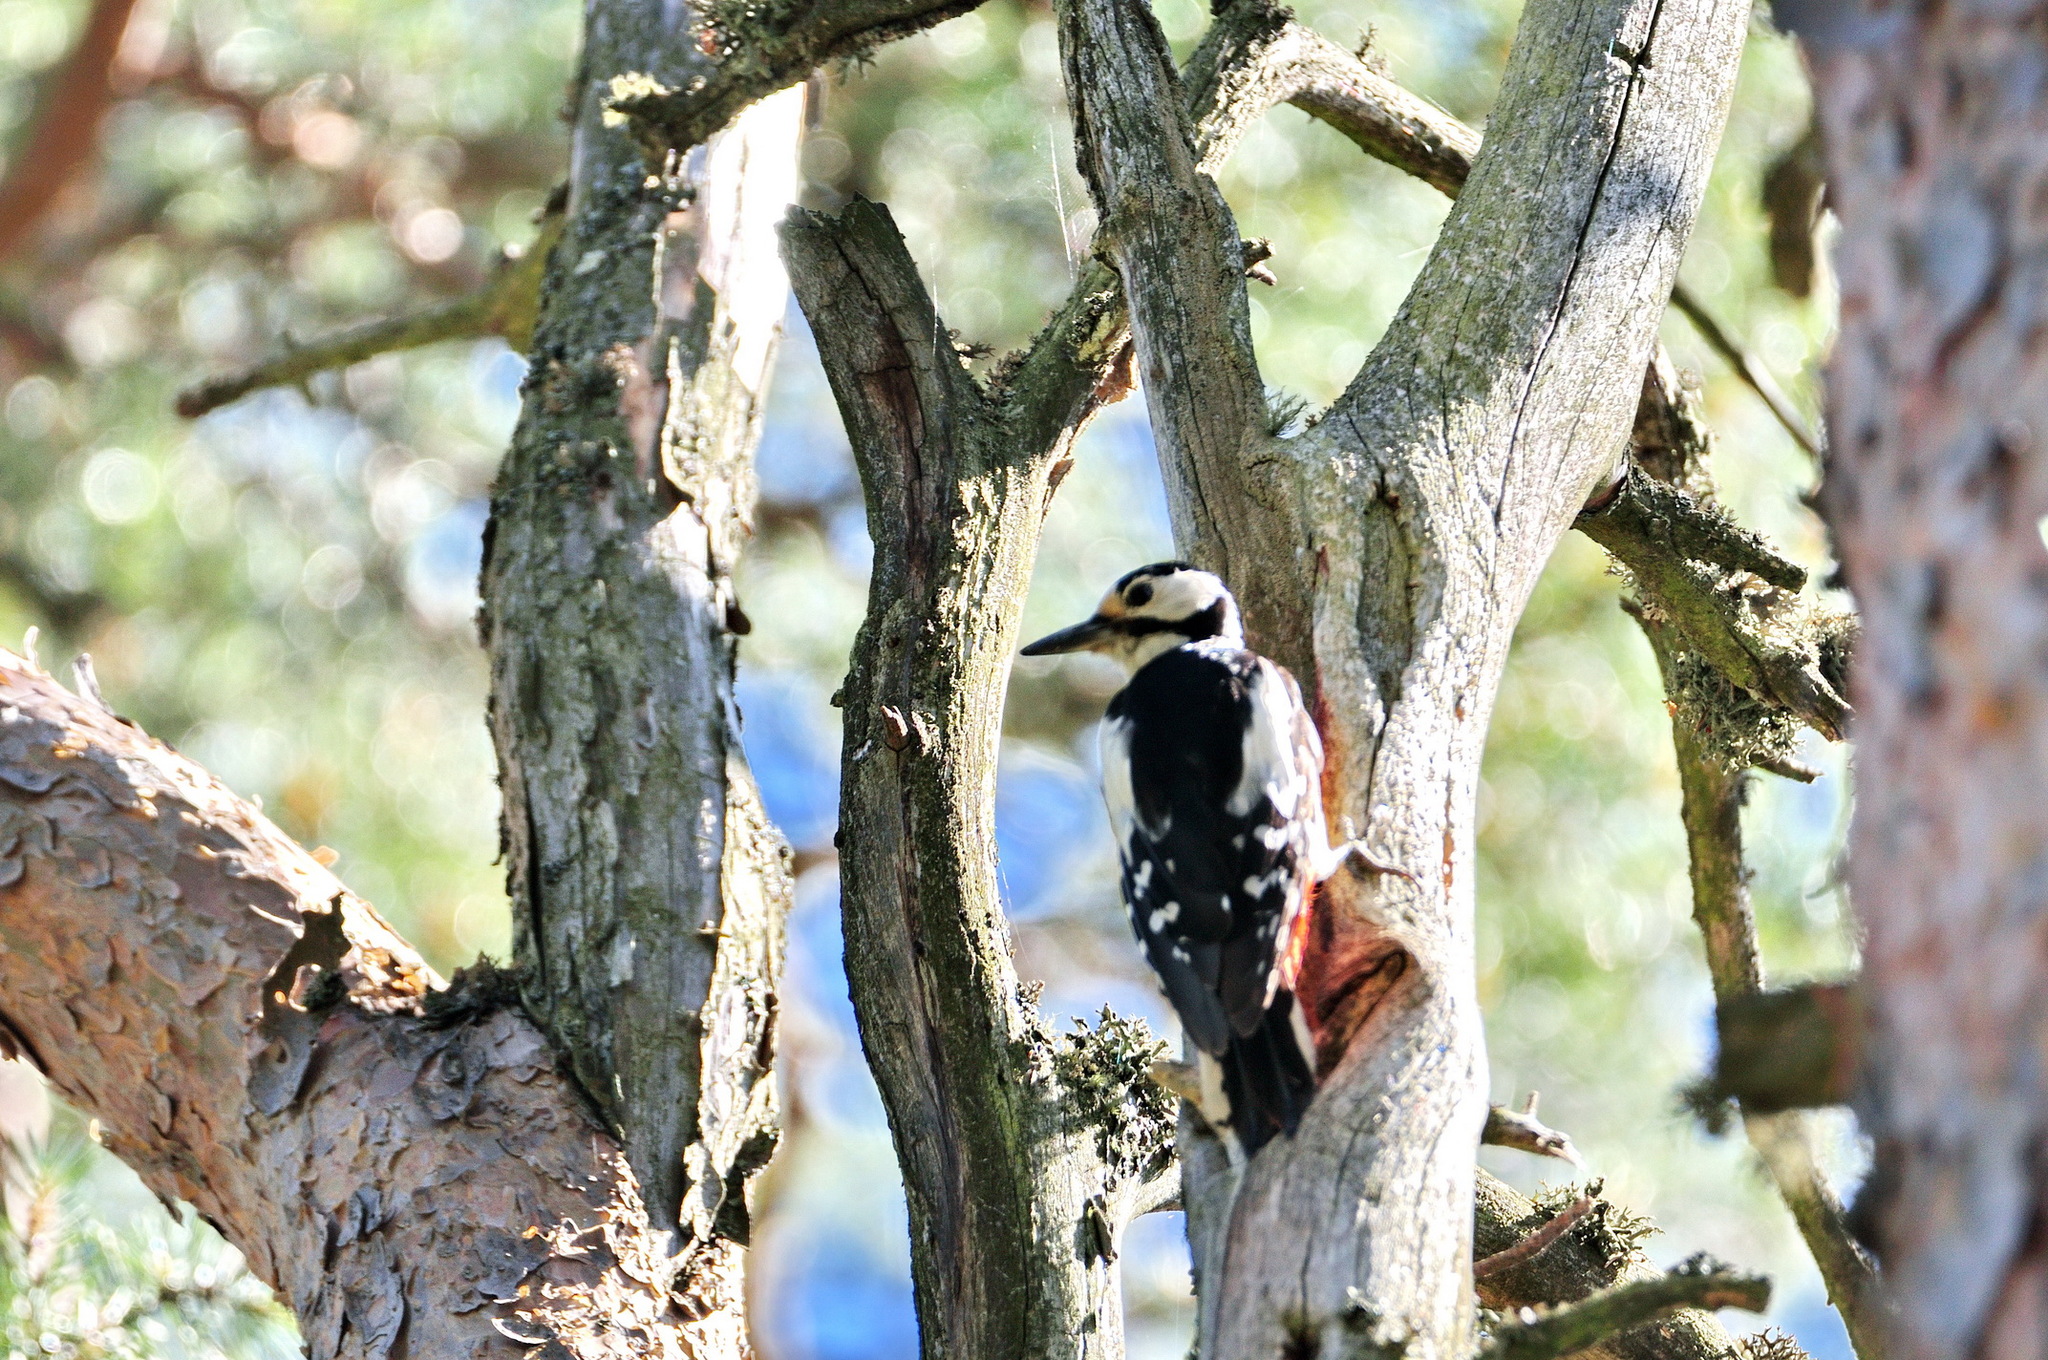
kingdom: Animalia
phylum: Chordata
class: Aves
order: Piciformes
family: Picidae
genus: Dendrocopos
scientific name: Dendrocopos major
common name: Great spotted woodpecker
